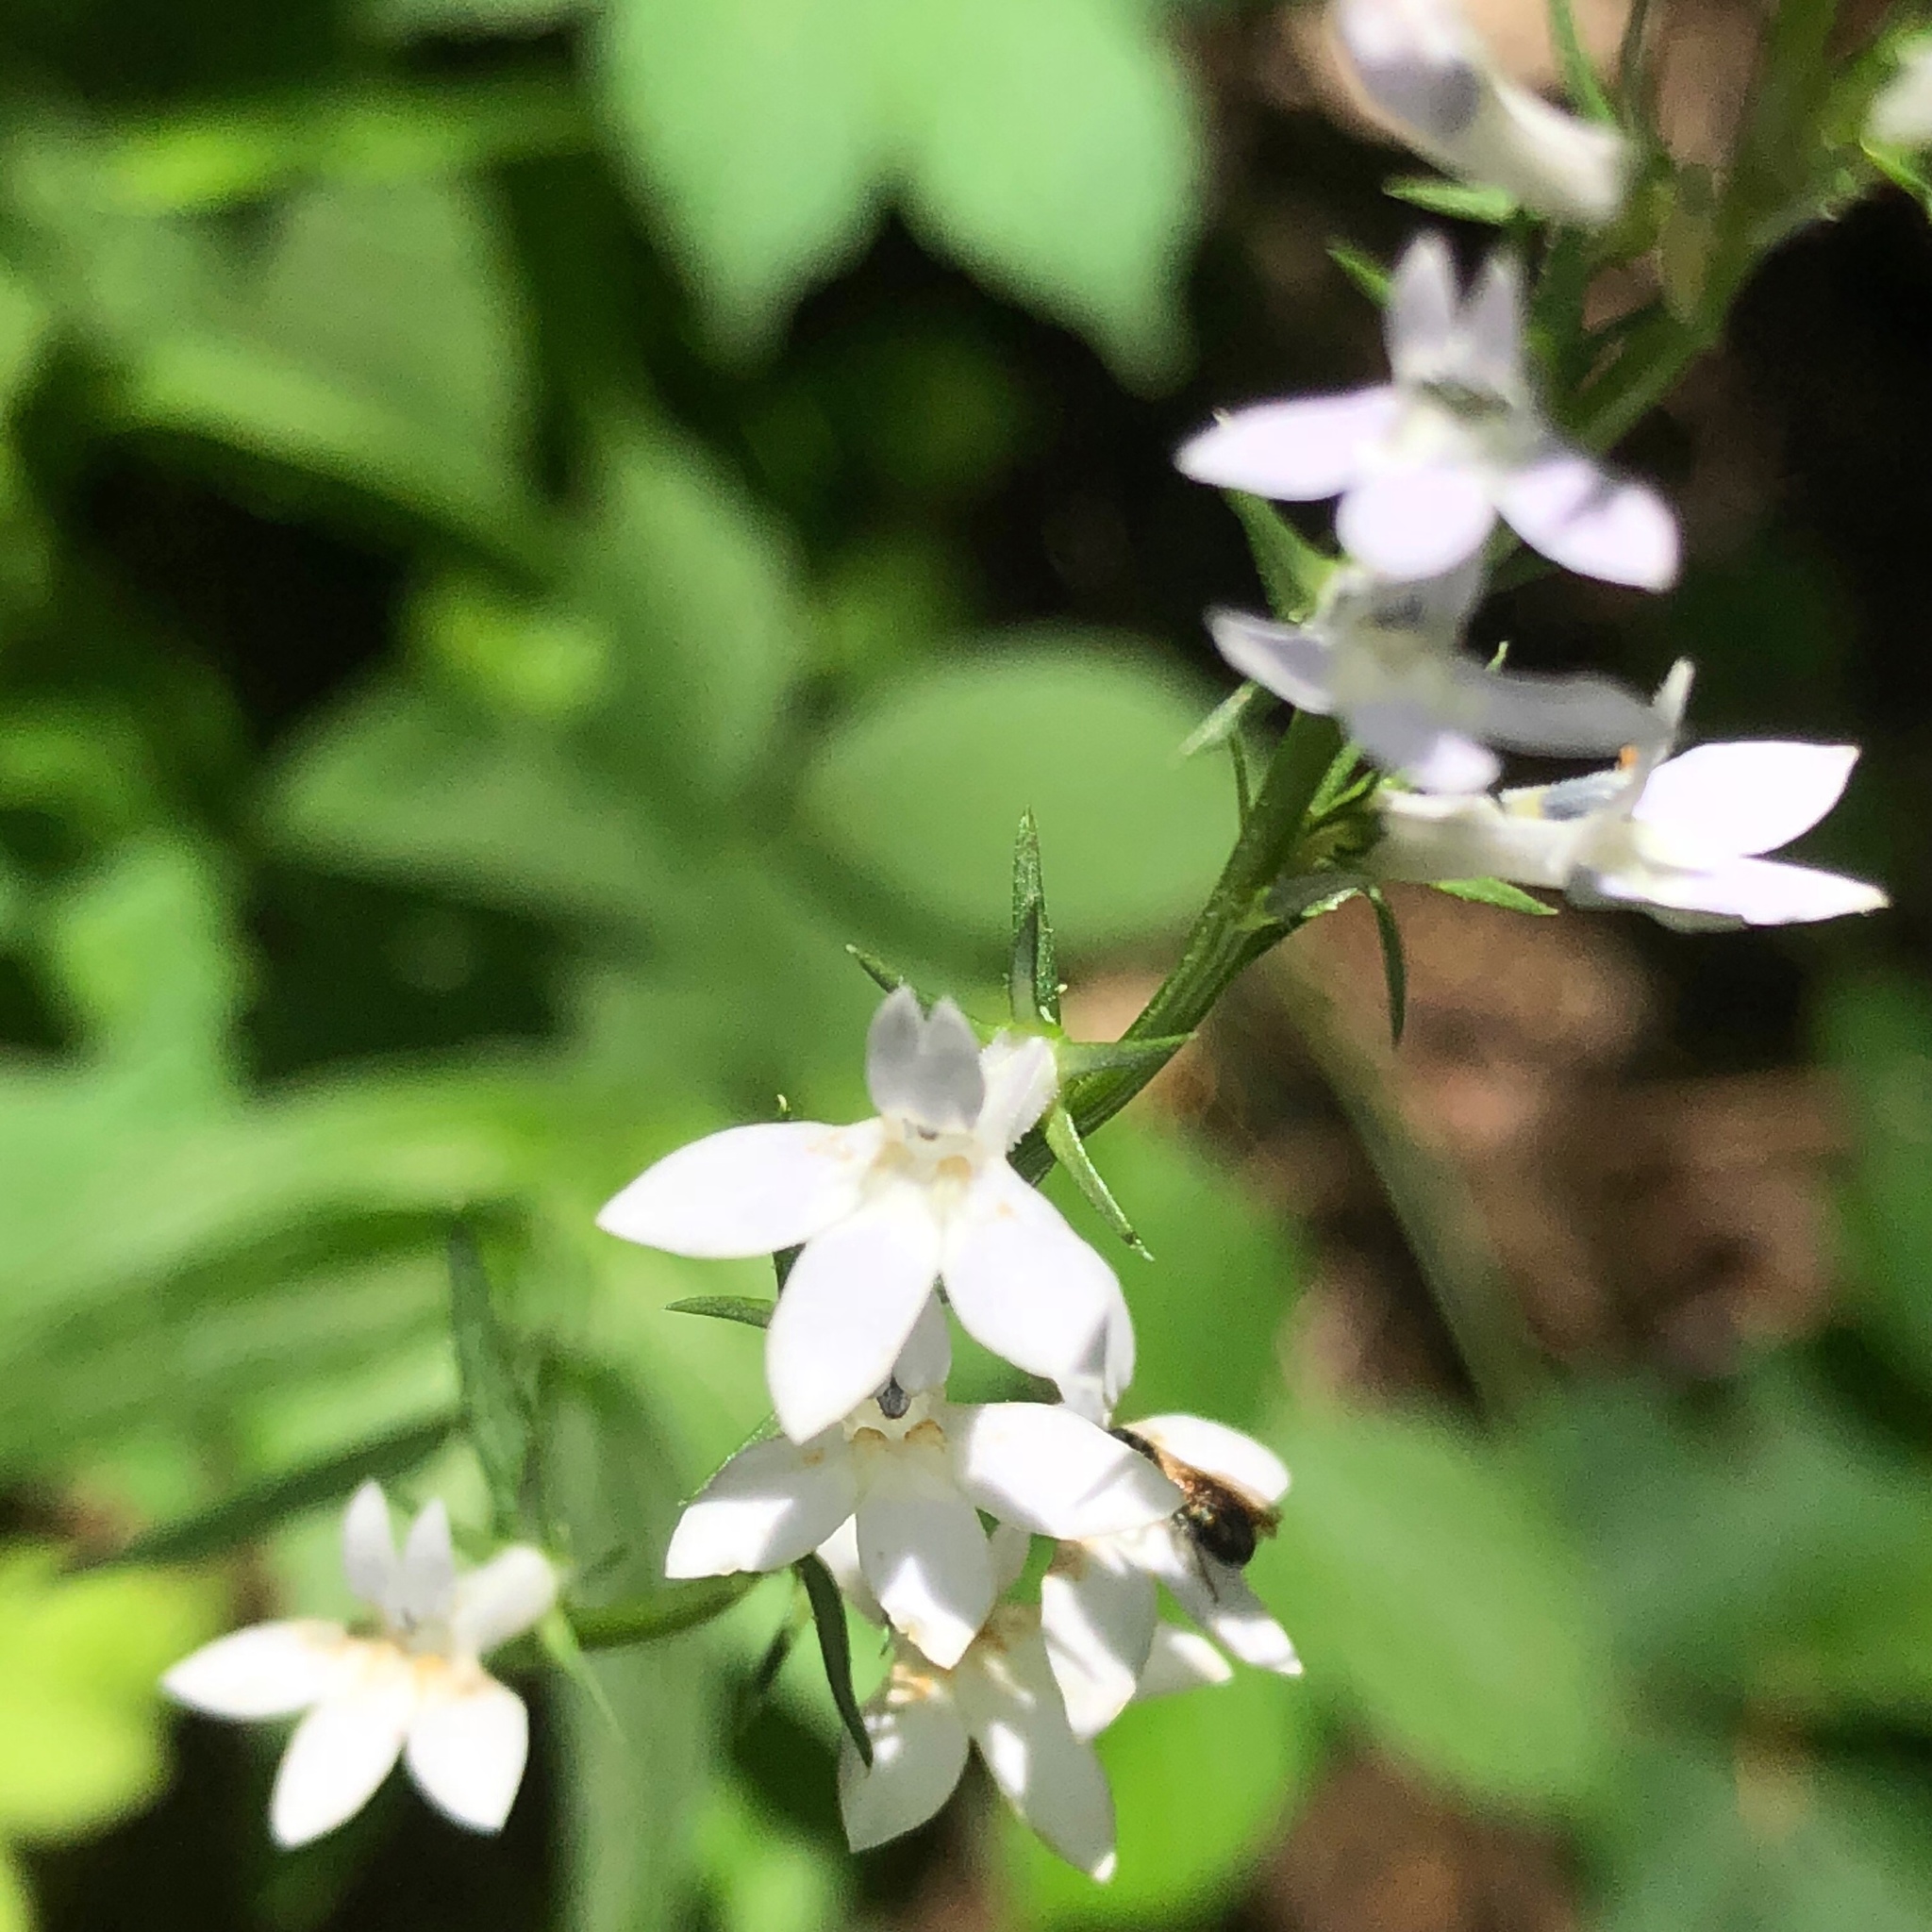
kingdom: Plantae
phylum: Tracheophyta
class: Magnoliopsida
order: Asterales
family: Campanulaceae
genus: Lobelia
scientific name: Lobelia spicata
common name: Pale-spike lobelia
